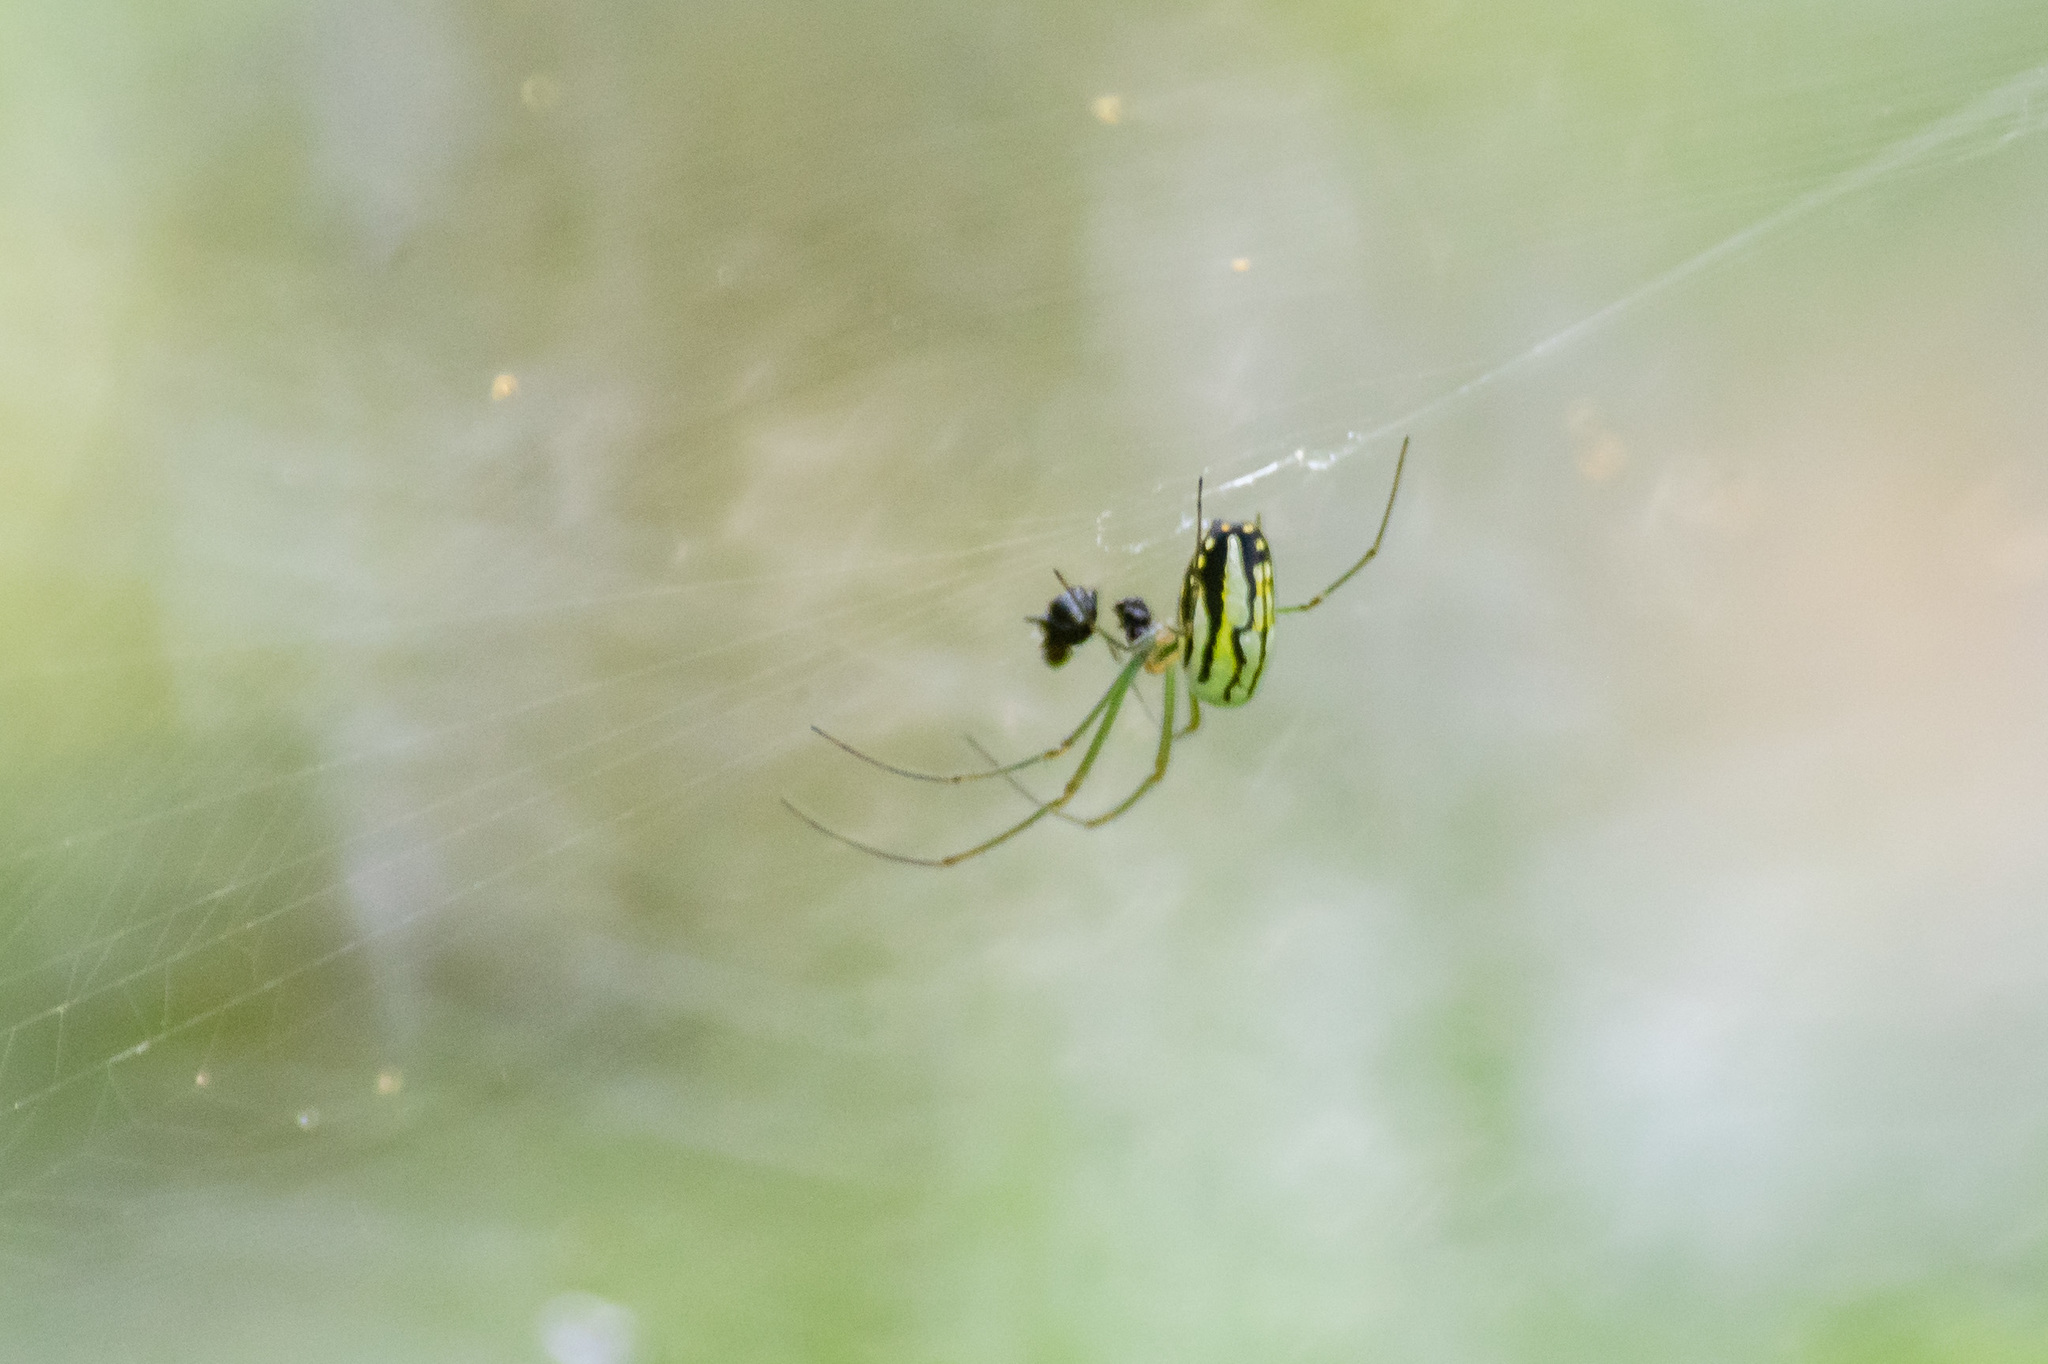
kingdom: Animalia
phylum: Arthropoda
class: Arachnida
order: Araneae
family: Tetragnathidae
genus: Leucauge
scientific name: Leucauge argyra
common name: Longjawed orb weavers
